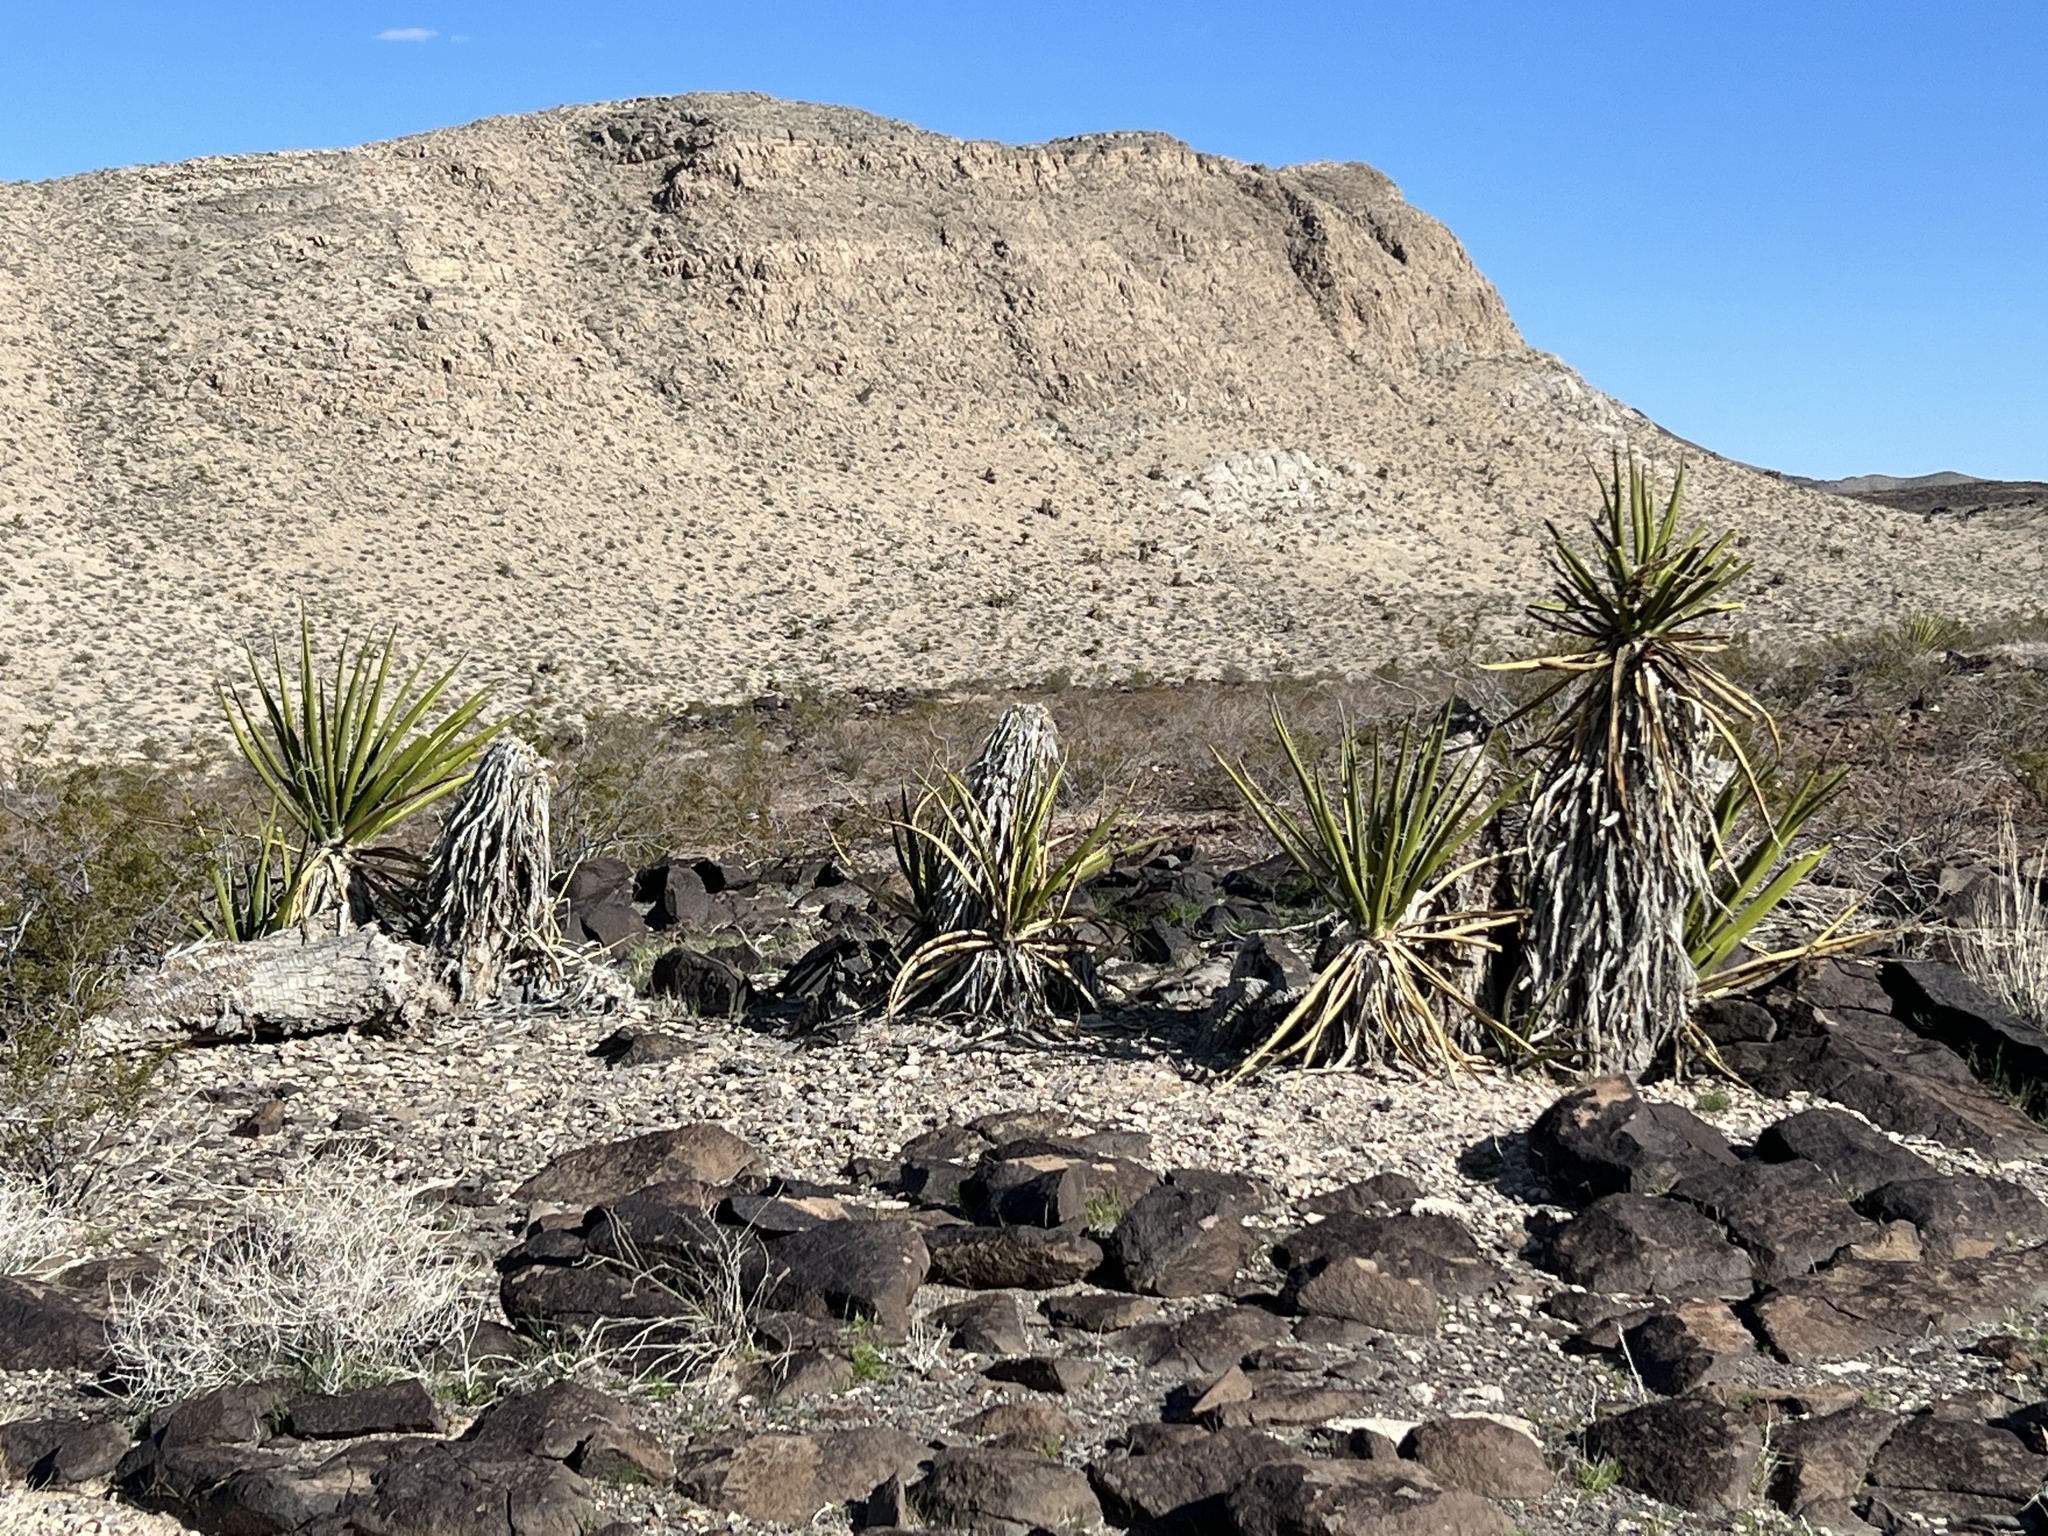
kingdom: Plantae
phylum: Tracheophyta
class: Liliopsida
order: Asparagales
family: Asparagaceae
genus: Yucca
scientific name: Yucca schidigera
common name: Mojave yucca
